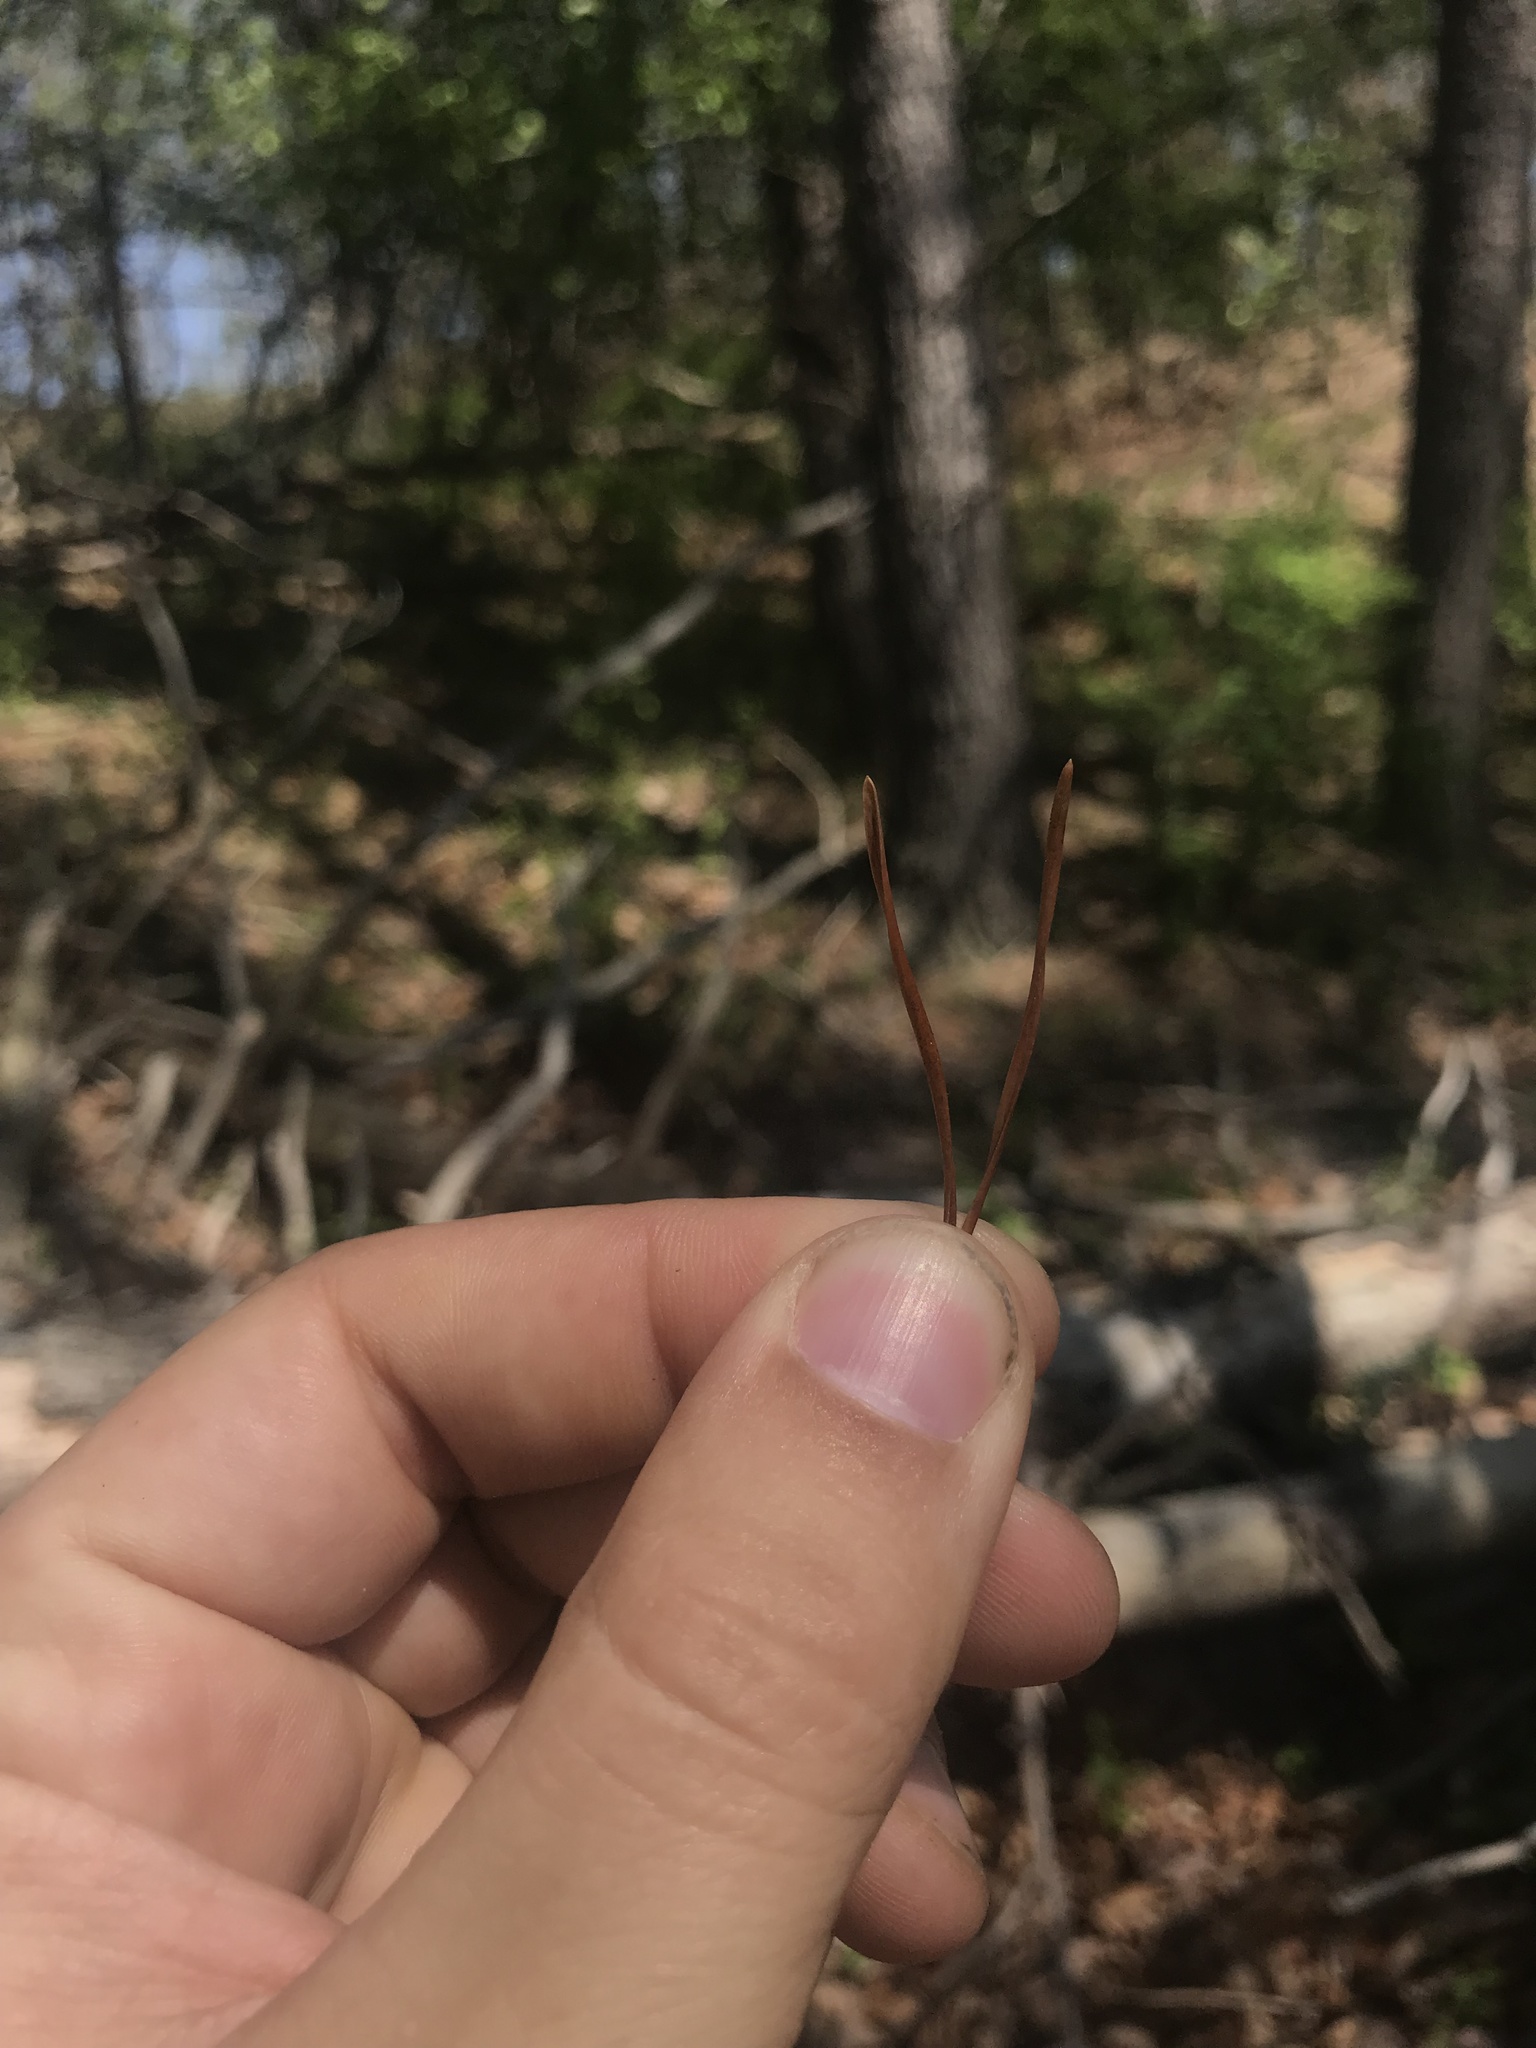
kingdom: Plantae
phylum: Tracheophyta
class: Pinopsida
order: Pinales
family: Pinaceae
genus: Pinus
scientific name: Pinus virginiana
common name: Scrub pine
